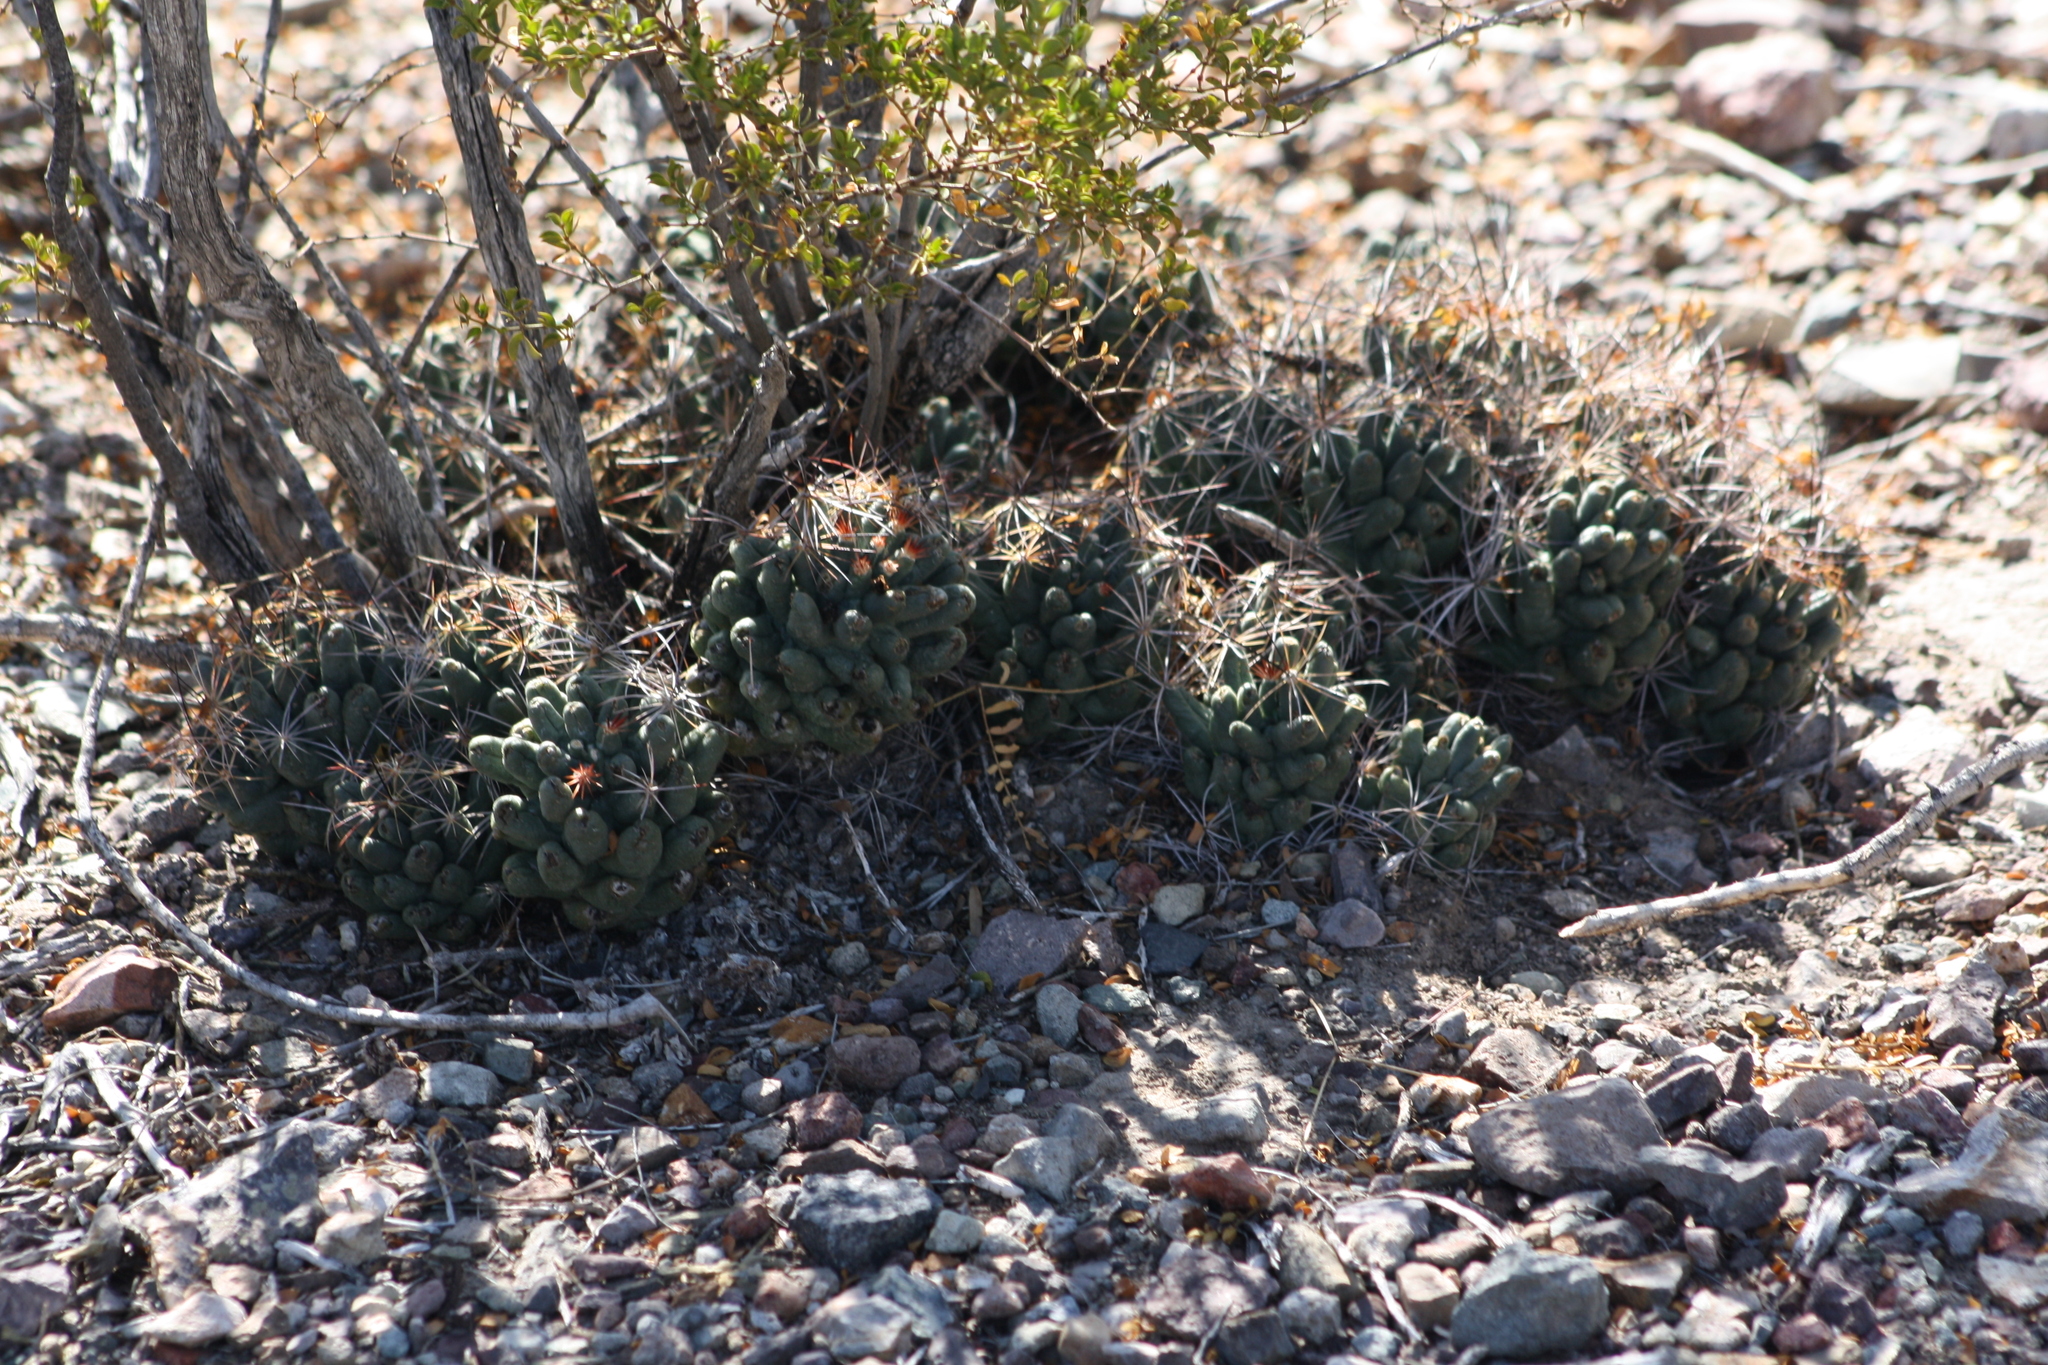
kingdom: Plantae
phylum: Tracheophyta
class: Magnoliopsida
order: Caryophyllales
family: Cactaceae
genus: Coryphantha
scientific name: Coryphantha macromeris
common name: Nipple beehive cactus
